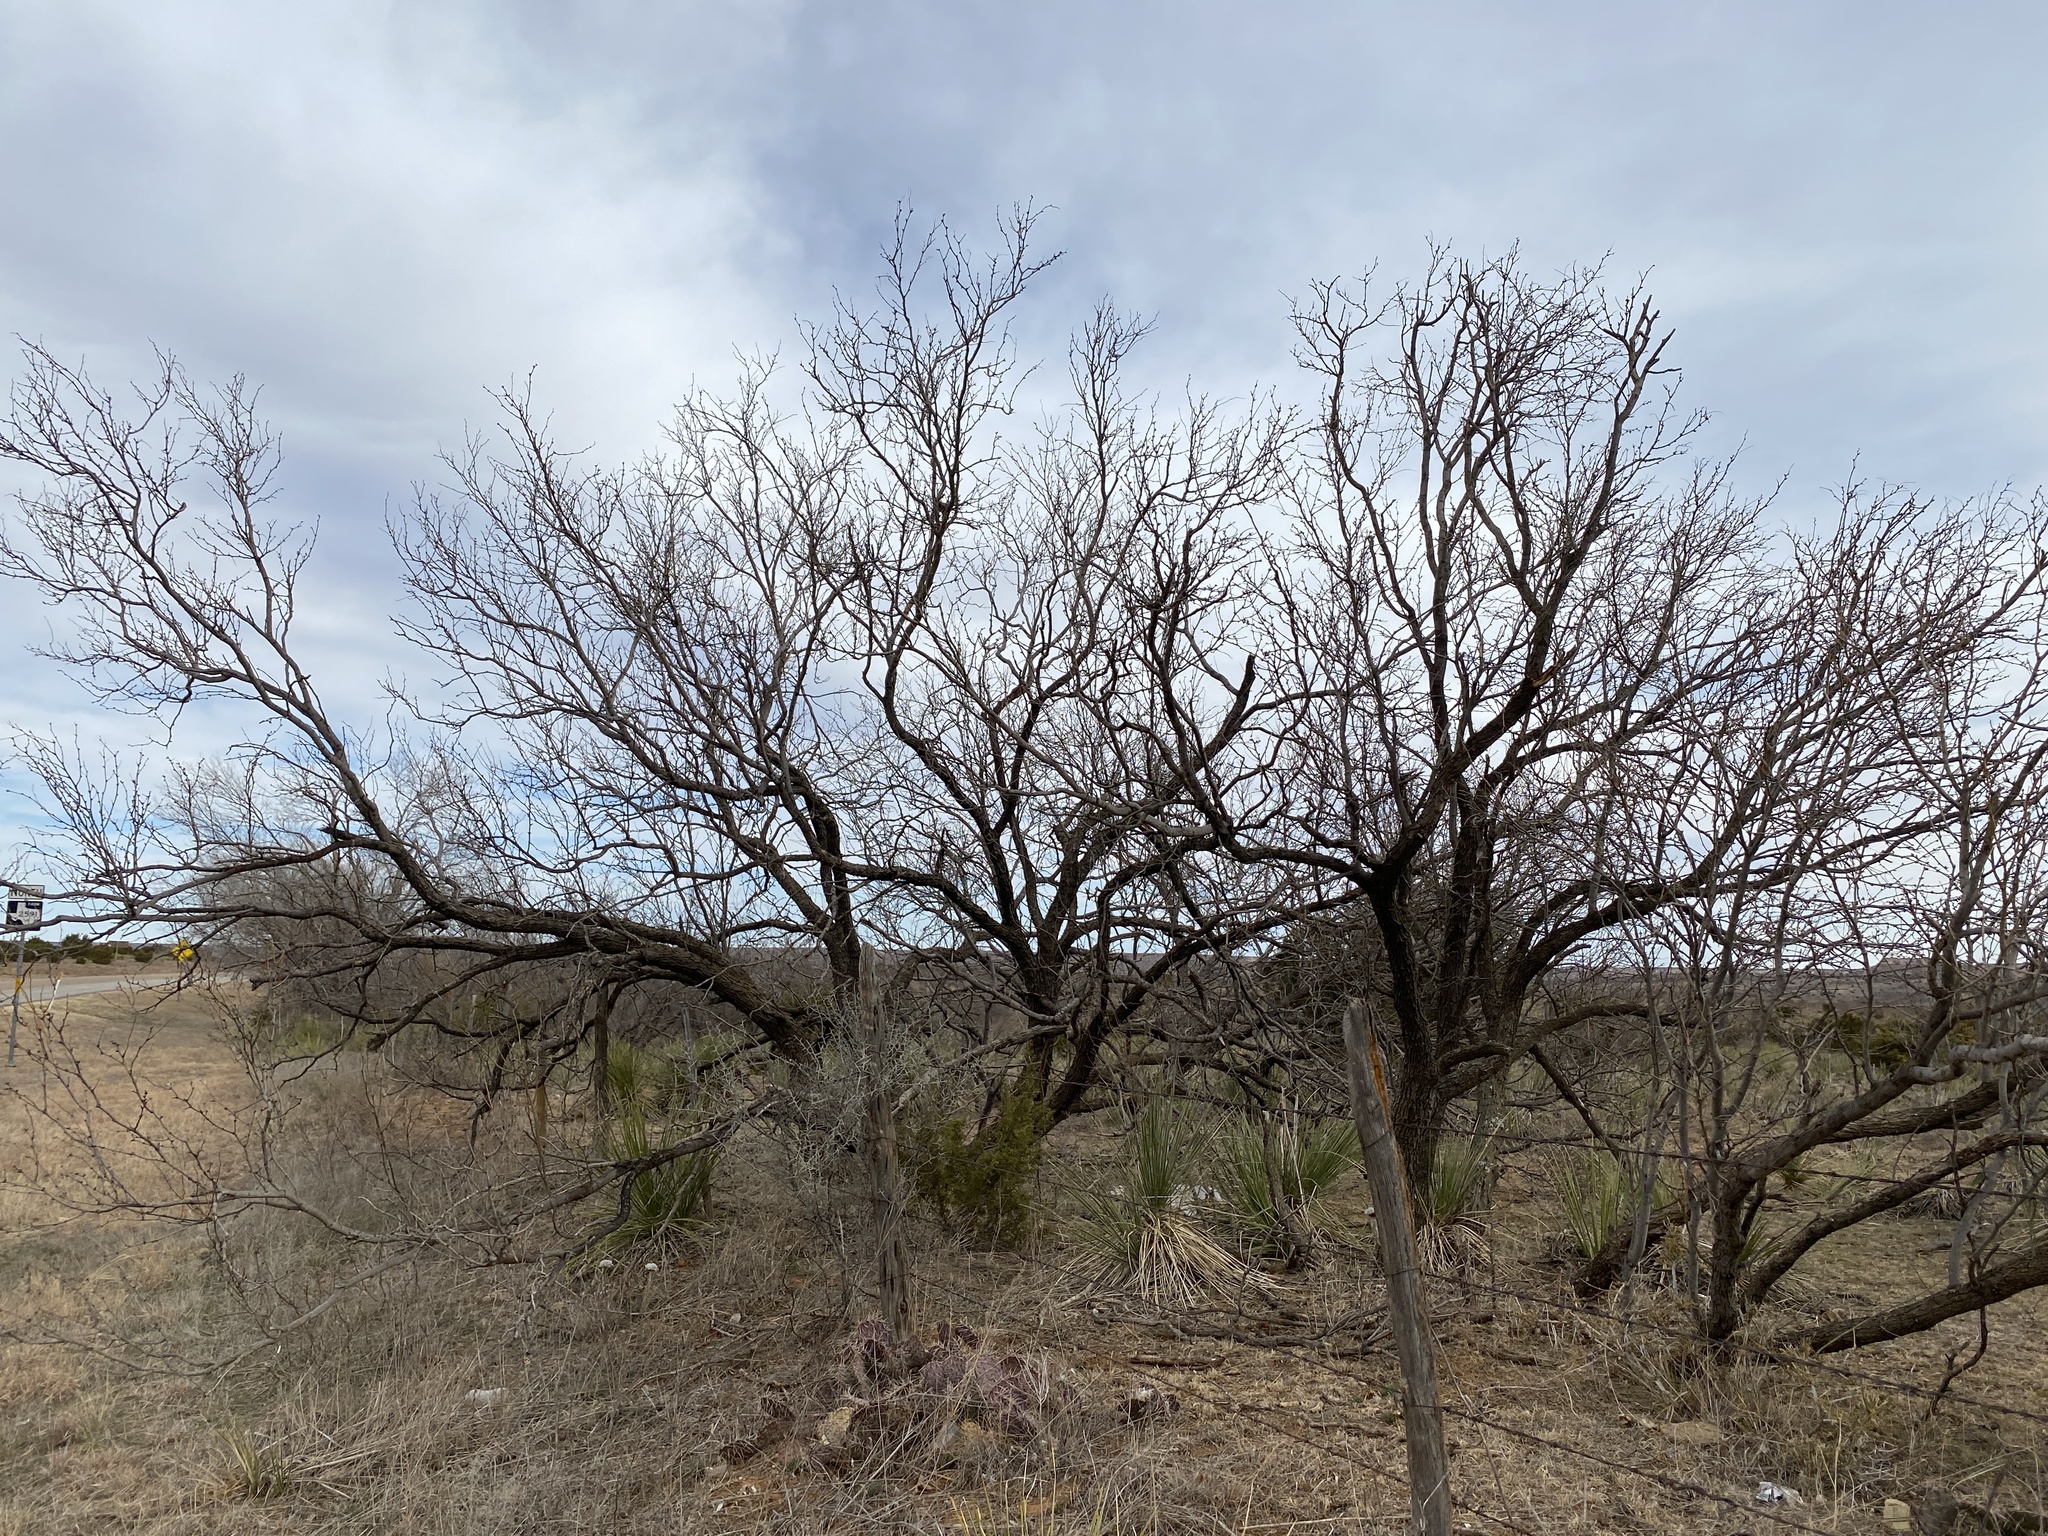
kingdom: Plantae
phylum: Tracheophyta
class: Magnoliopsida
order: Fabales
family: Fabaceae
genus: Prosopis
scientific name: Prosopis glandulosa
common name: Honey mesquite
